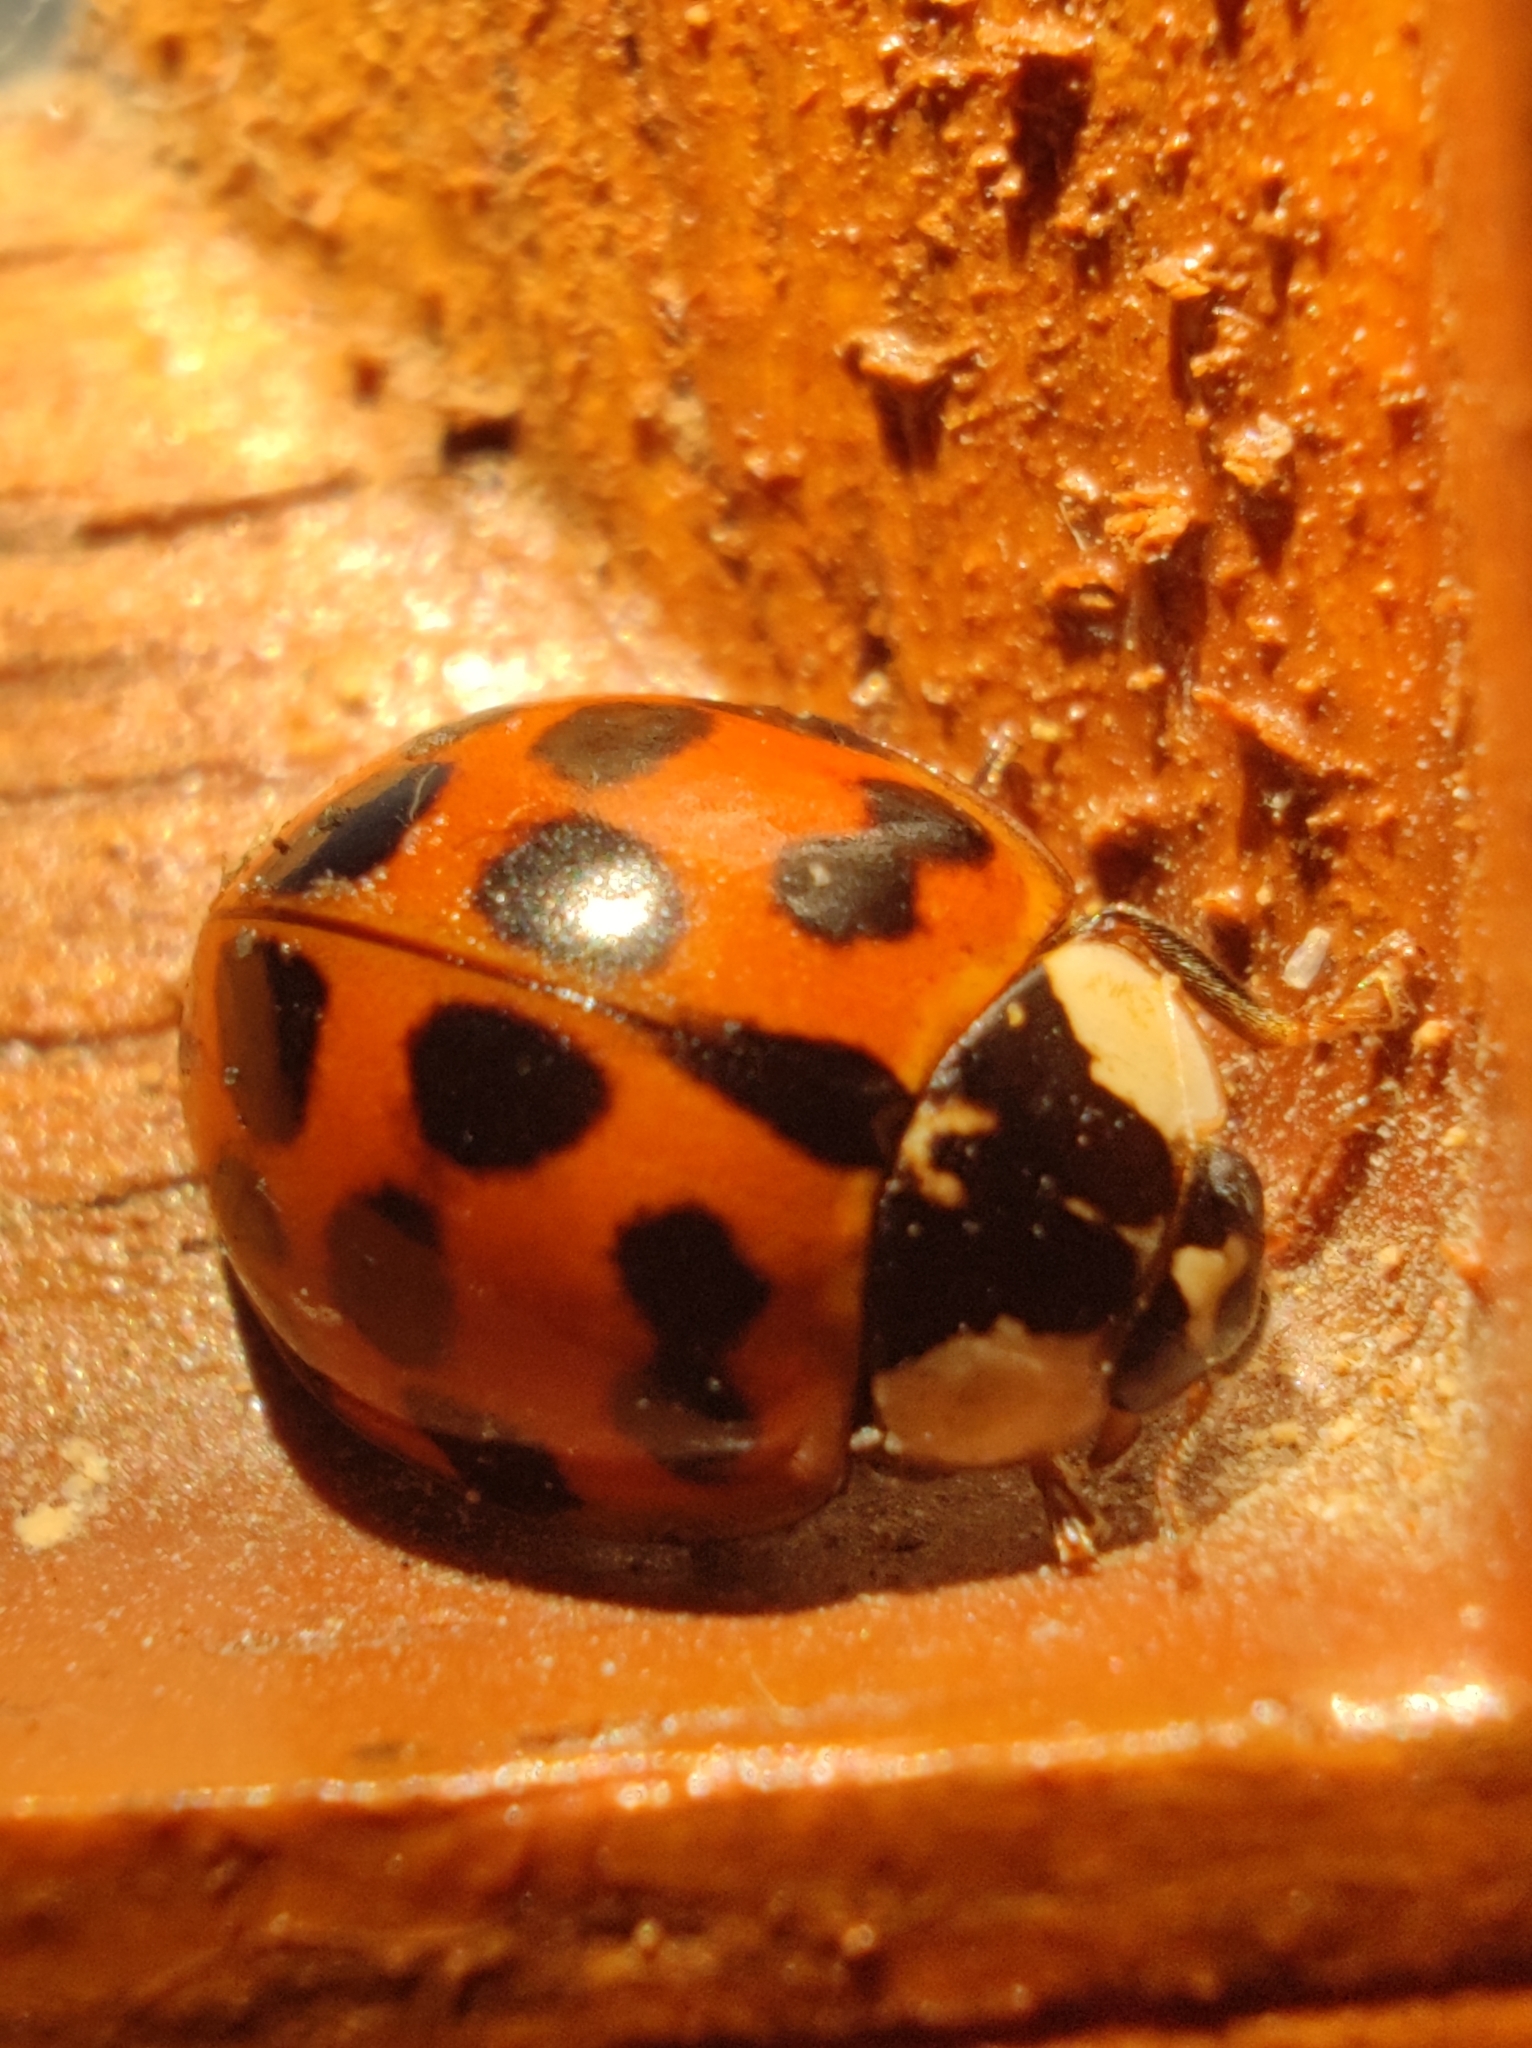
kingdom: Animalia
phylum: Arthropoda
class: Insecta
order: Coleoptera
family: Coccinellidae
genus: Harmonia
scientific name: Harmonia axyridis
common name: Harlequin ladybird
